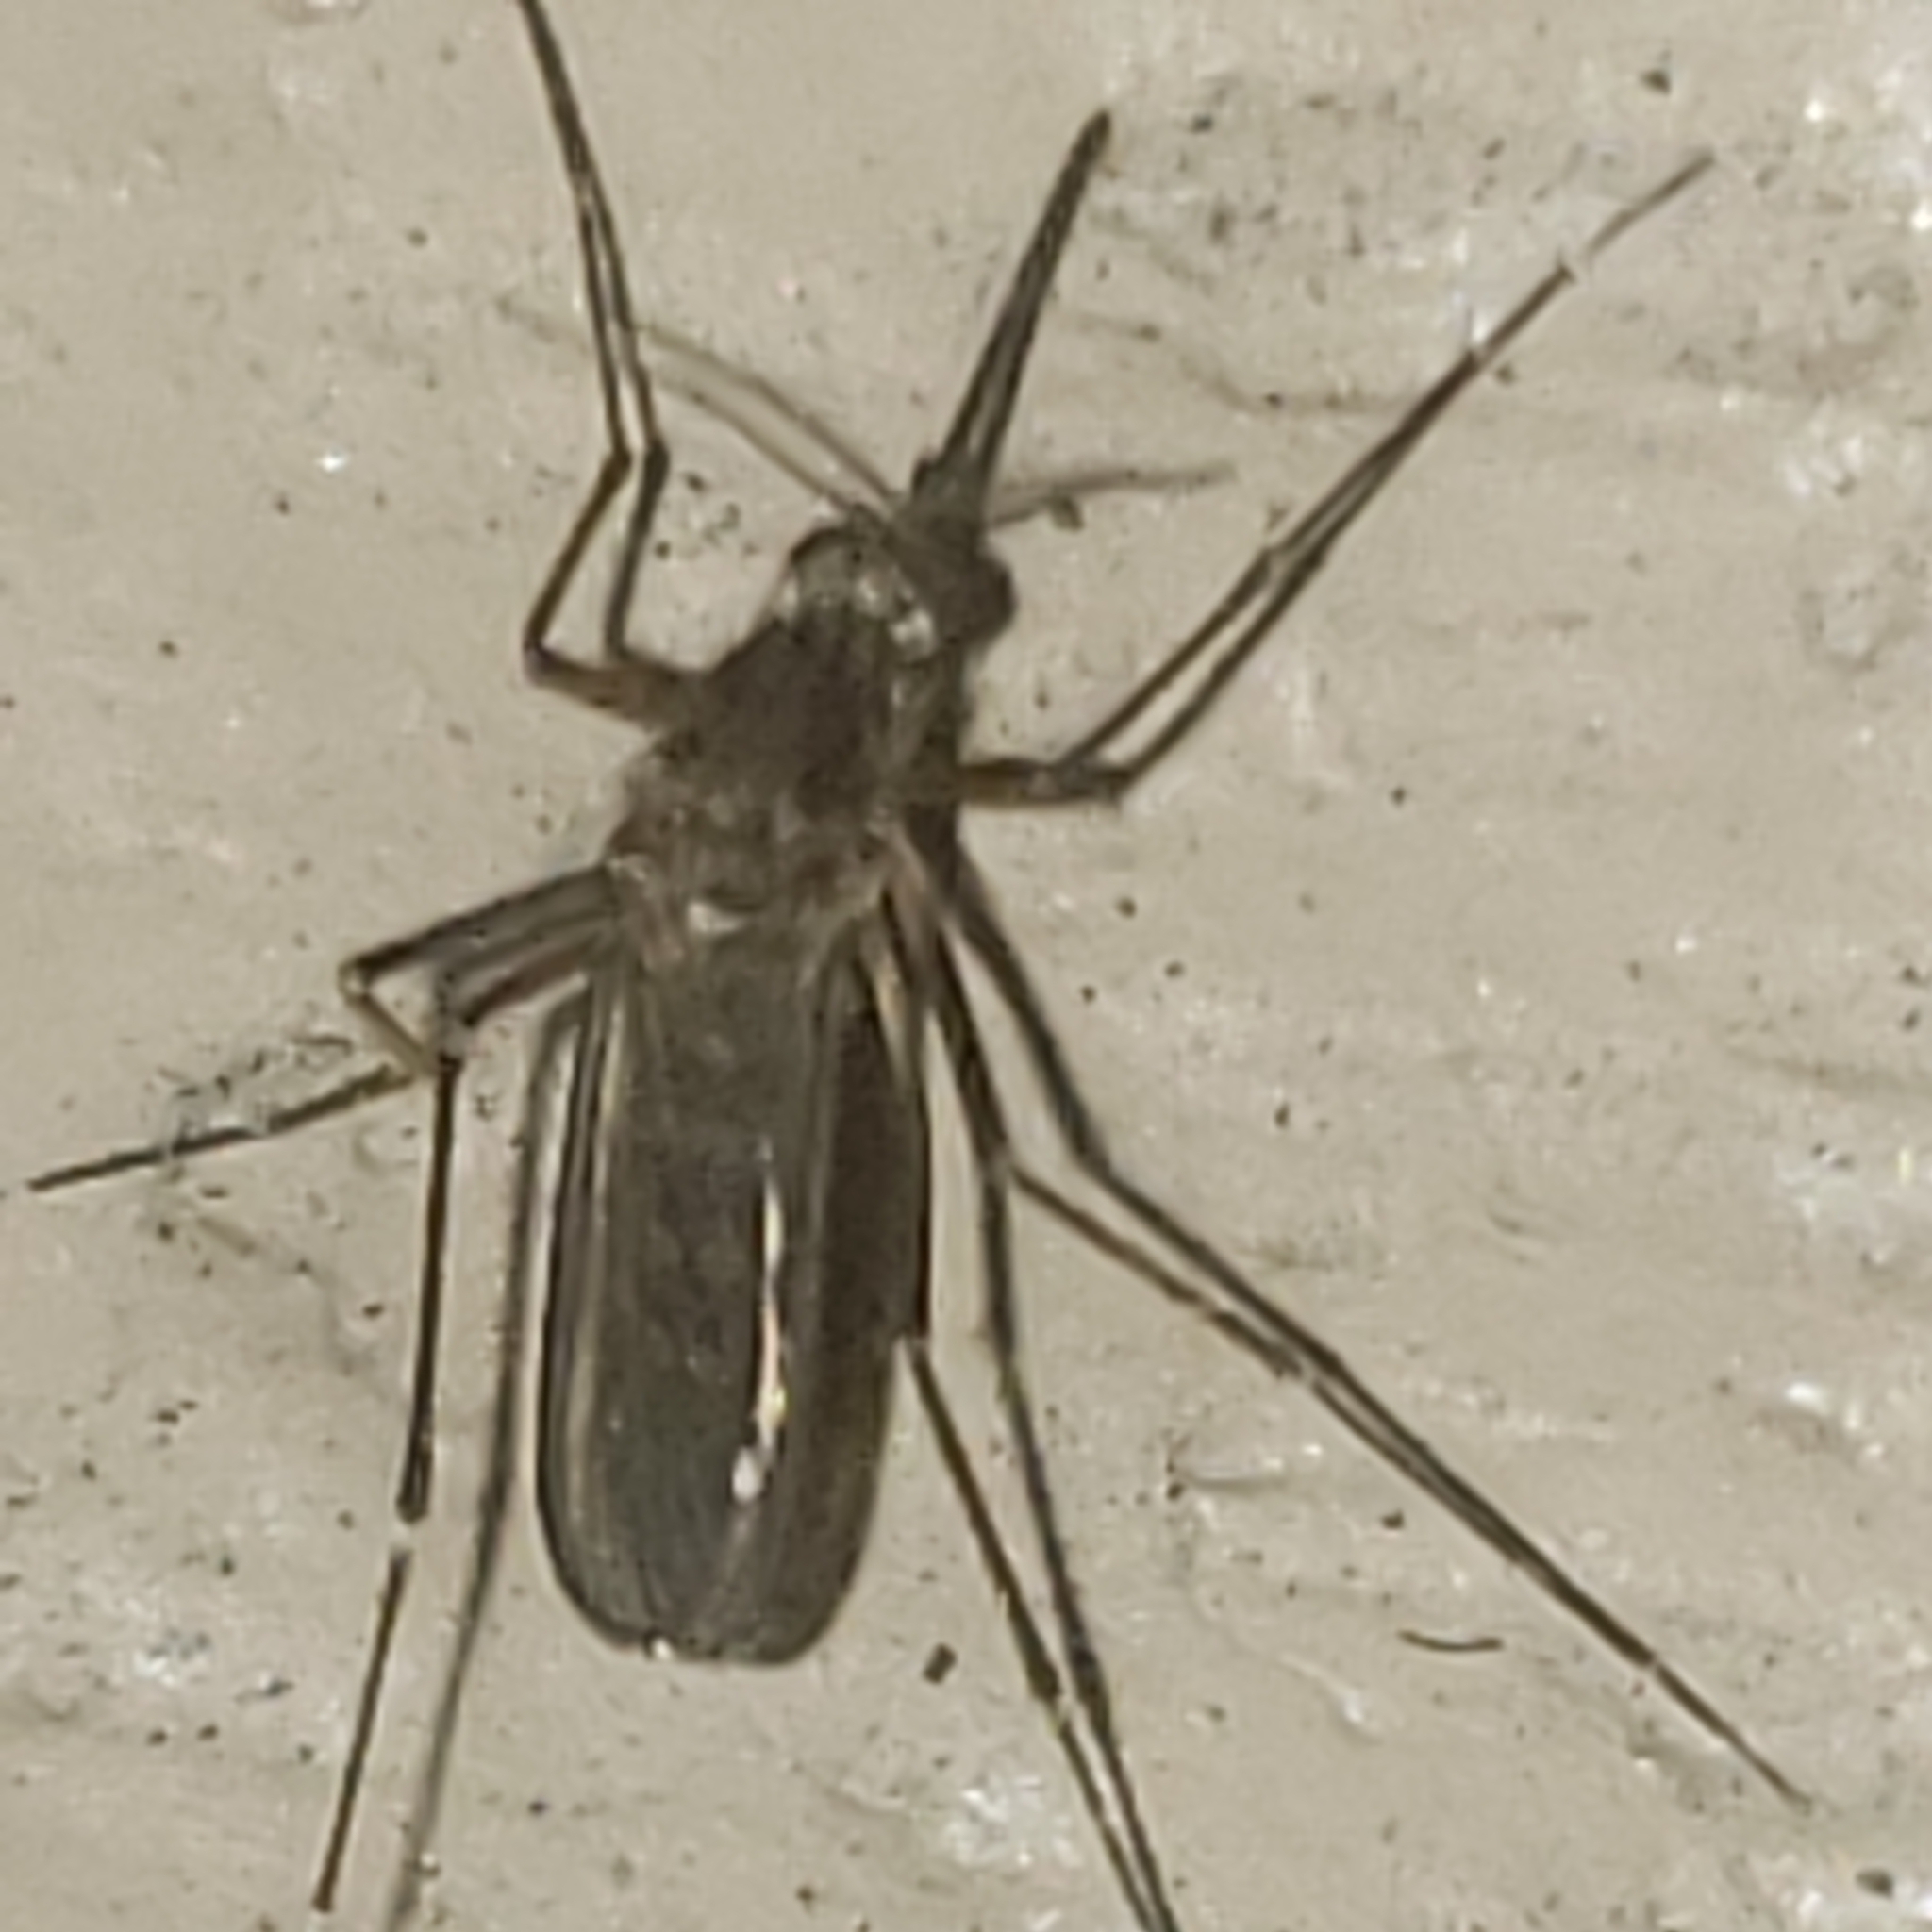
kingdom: Animalia
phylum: Arthropoda
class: Insecta
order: Diptera
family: Culicidae
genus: Aedes
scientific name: Aedes vexans
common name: Inland floodwater mosquito
